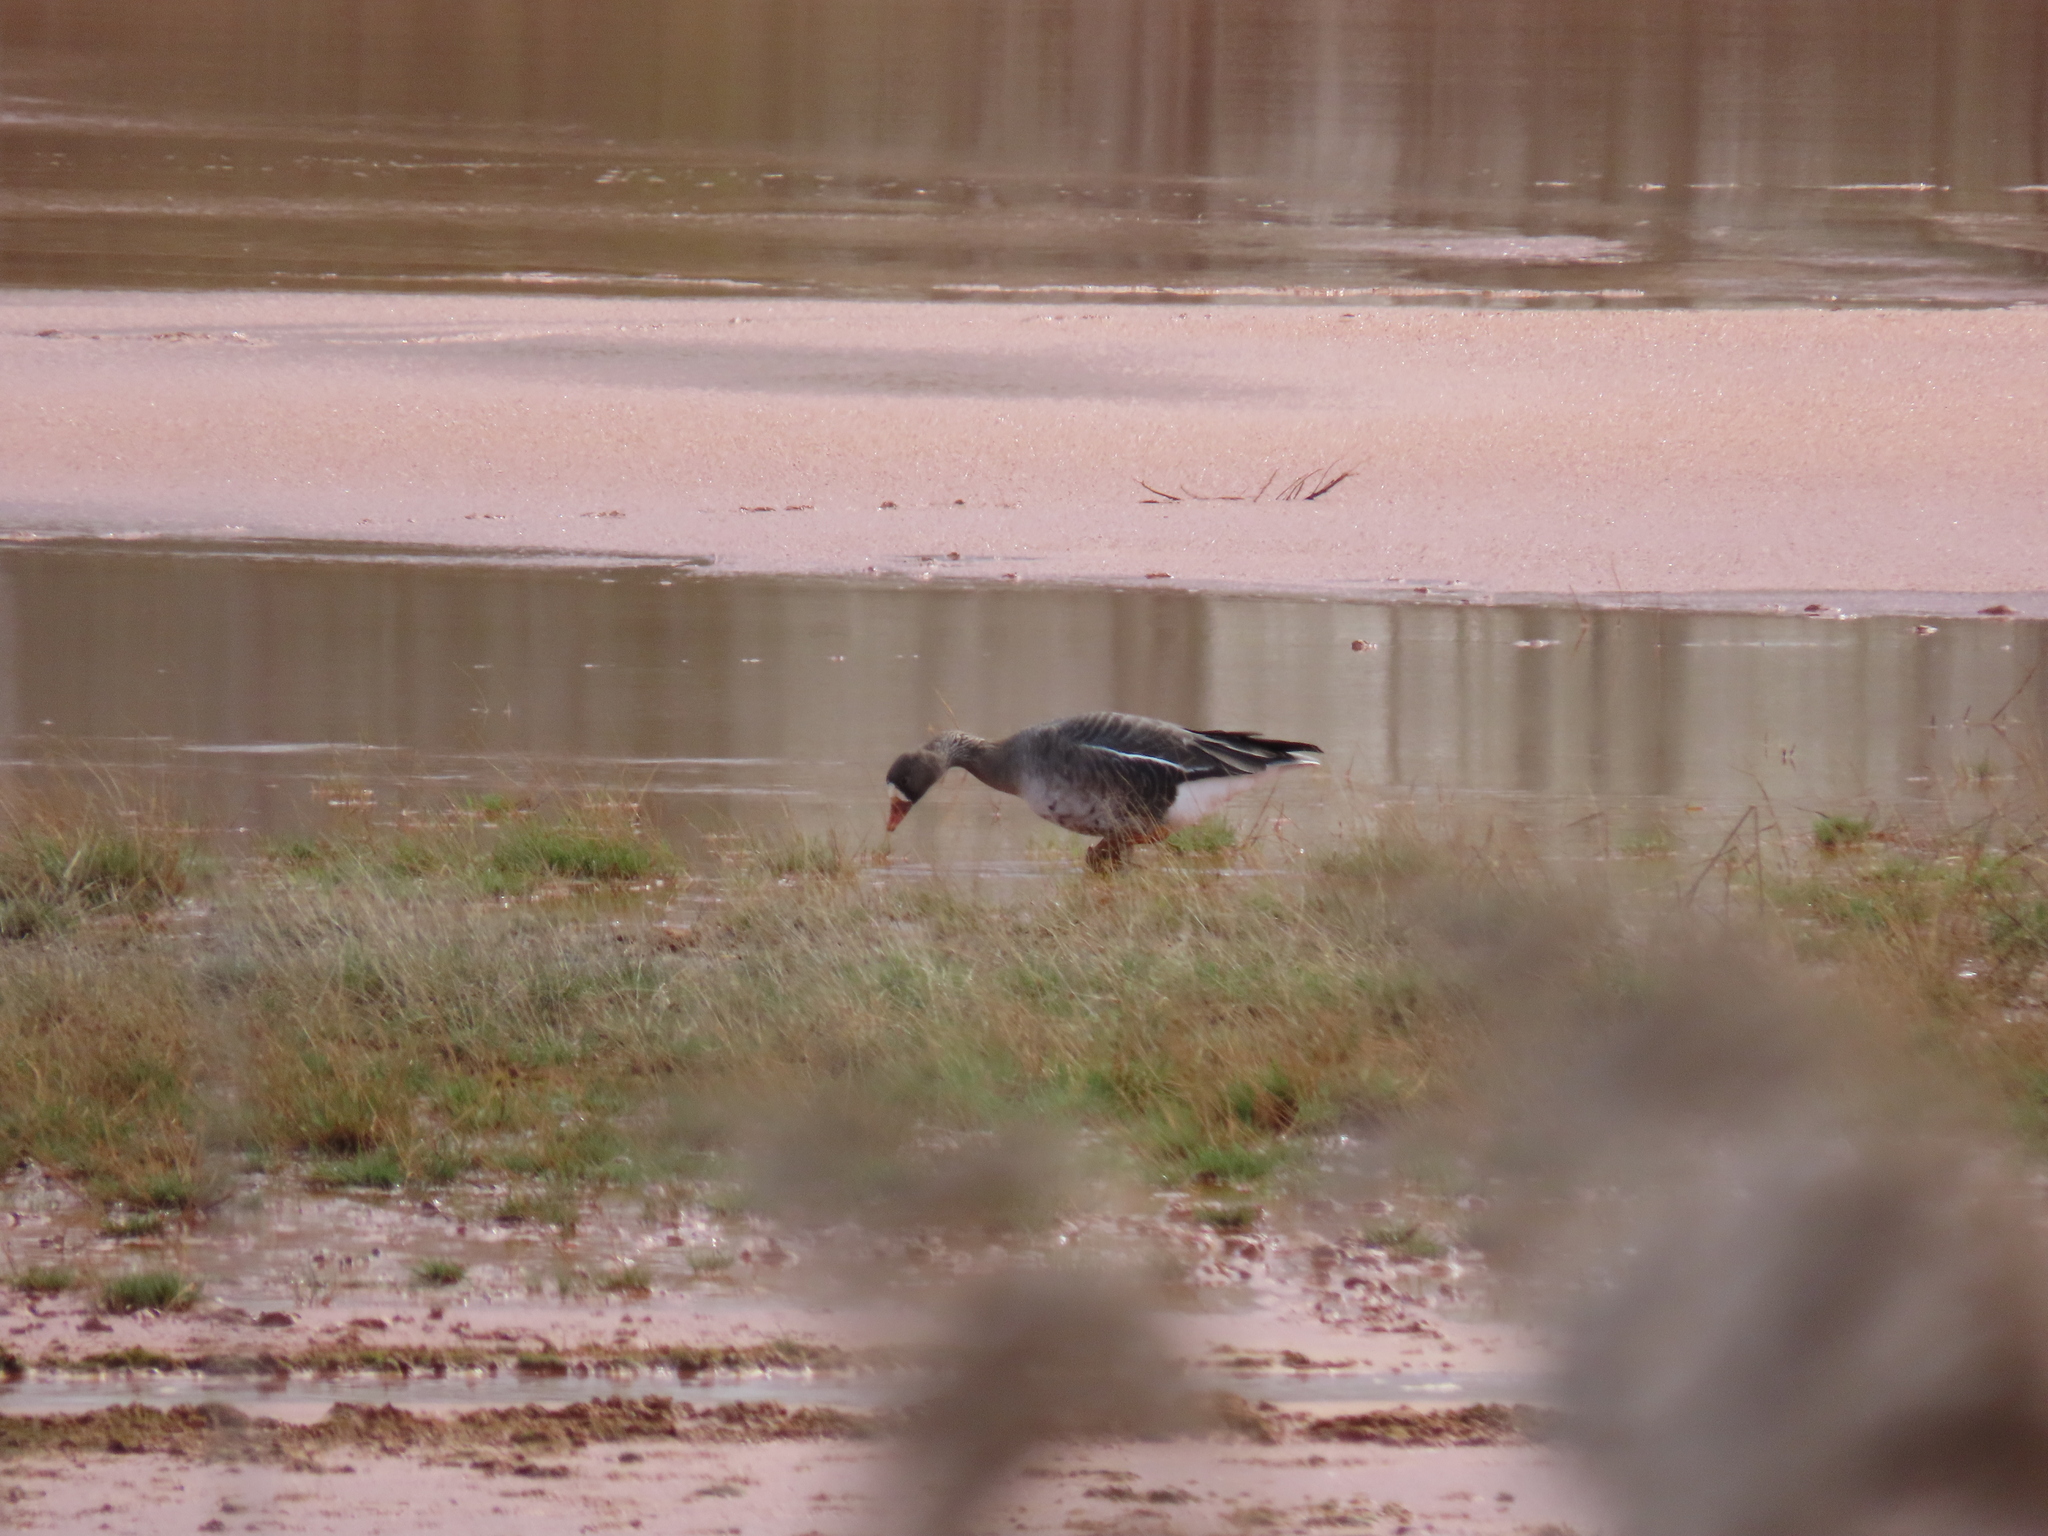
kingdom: Animalia
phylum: Chordata
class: Aves
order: Anseriformes
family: Anatidae
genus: Anser
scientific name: Anser albifrons
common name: Greater white-fronted goose
